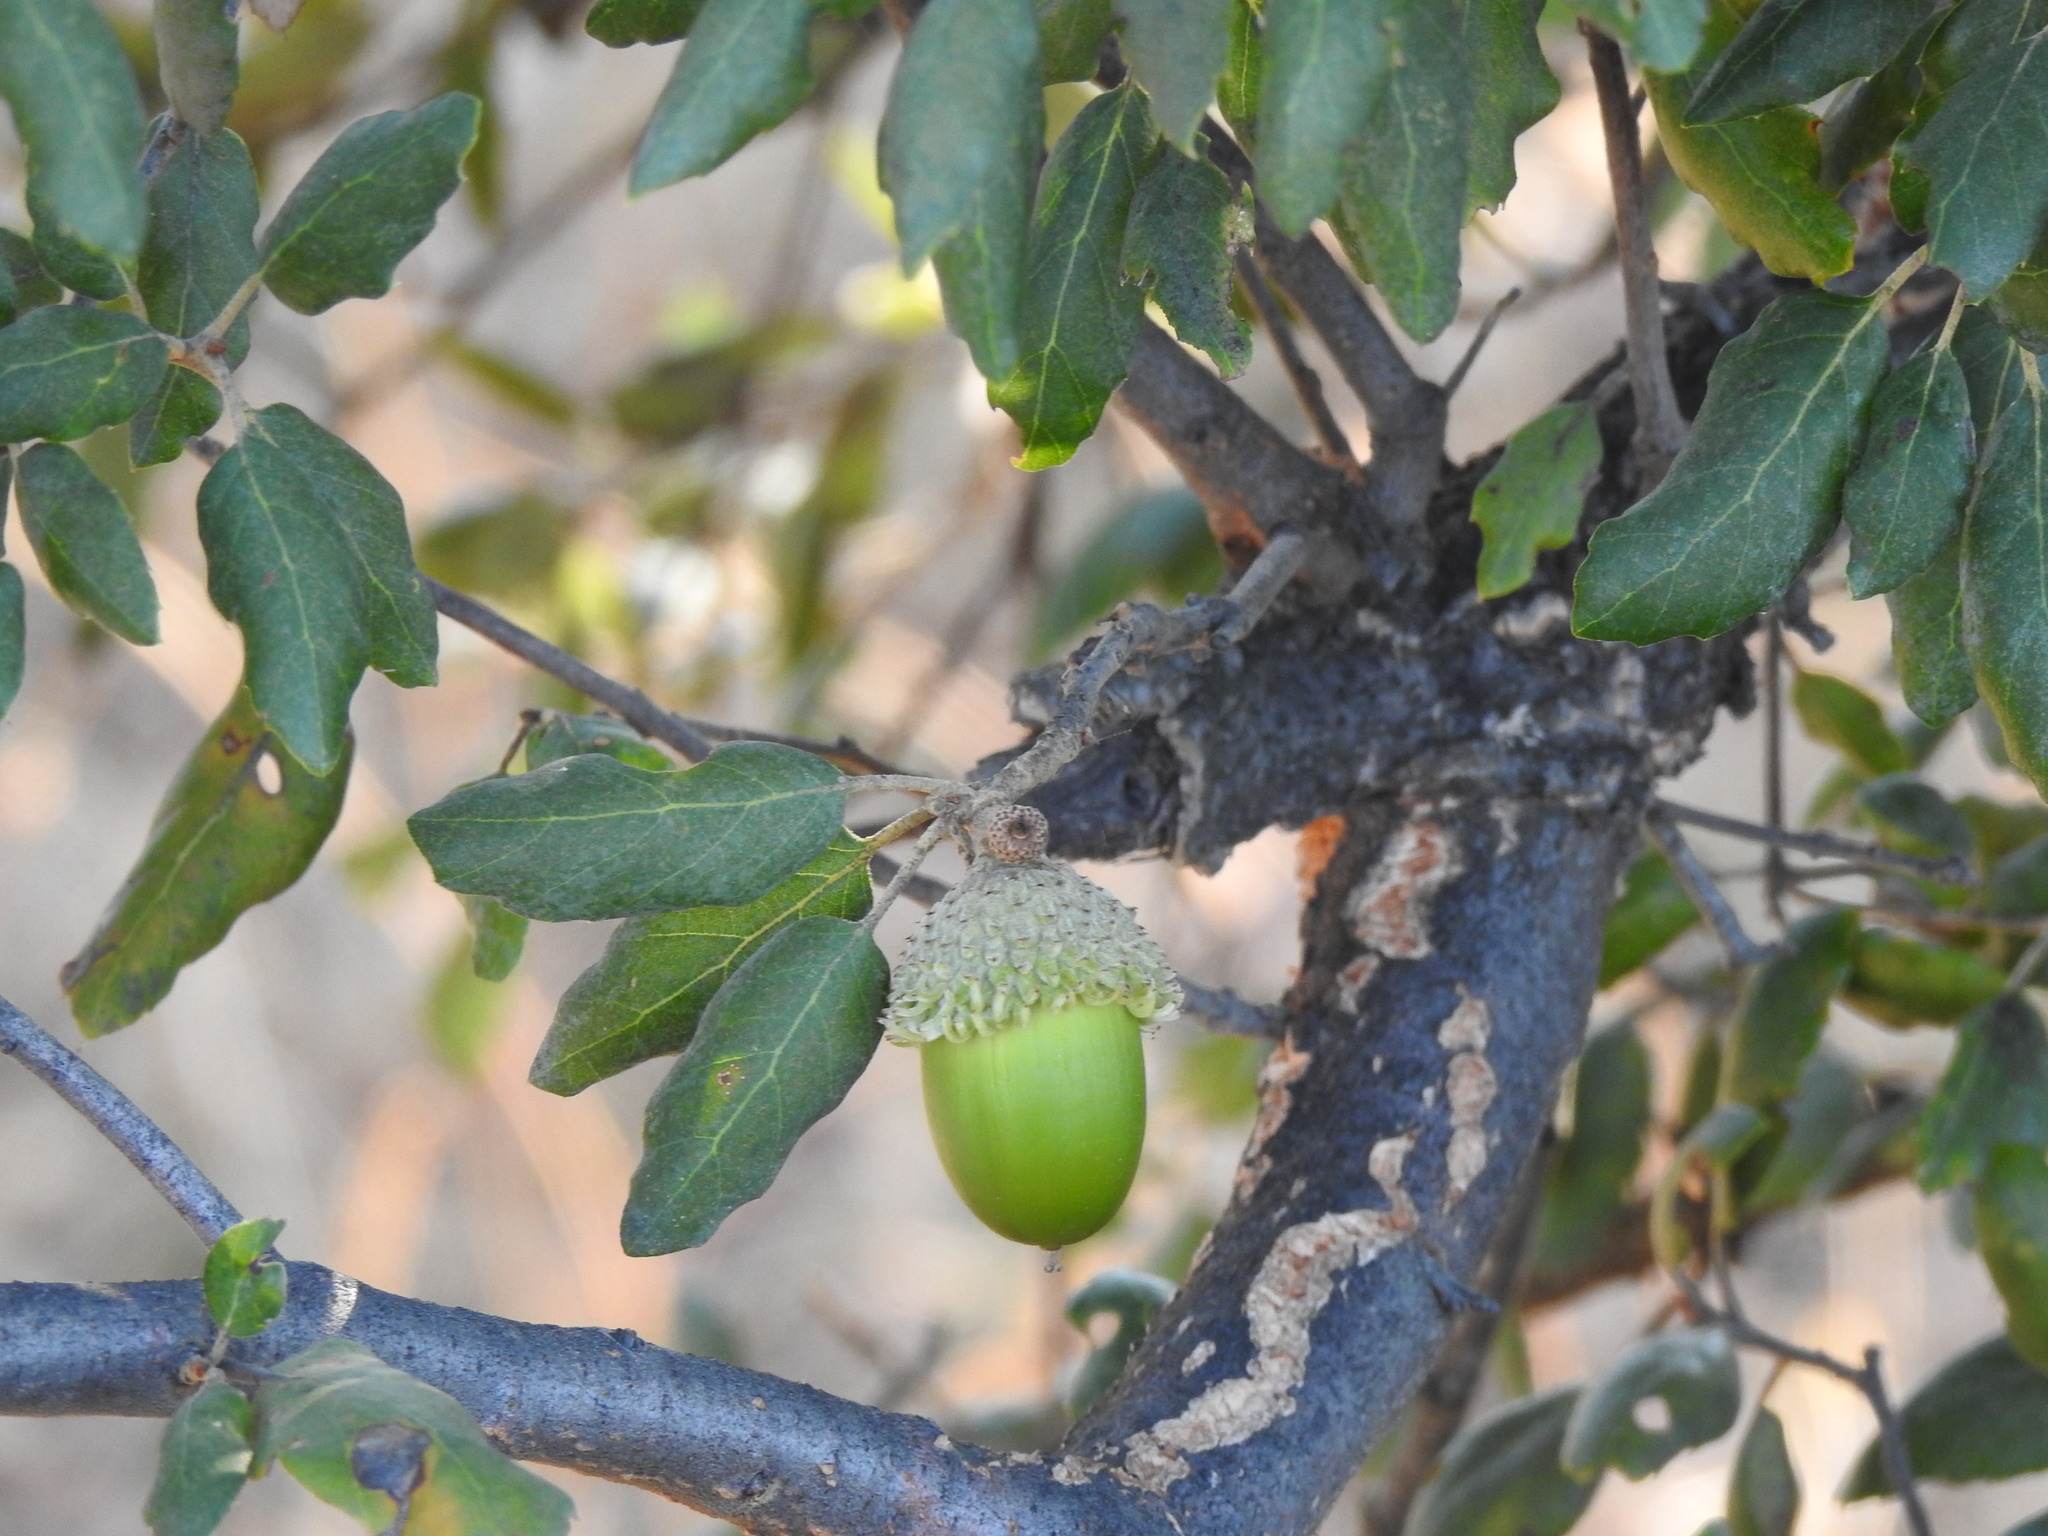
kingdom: Plantae
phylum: Tracheophyta
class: Magnoliopsida
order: Fagales
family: Fagaceae
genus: Quercus
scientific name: Quercus suber
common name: Cork oak
